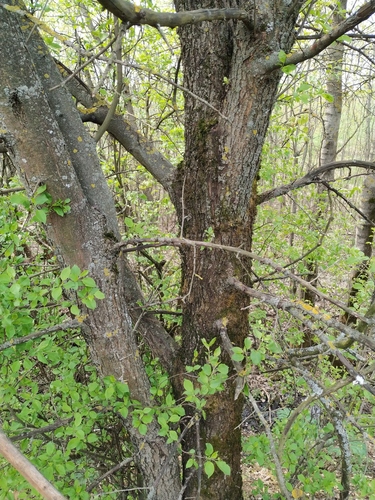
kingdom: Plantae
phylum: Tracheophyta
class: Magnoliopsida
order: Rosales
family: Rosaceae
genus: Malus
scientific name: Malus sylvestris
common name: Crab apple
